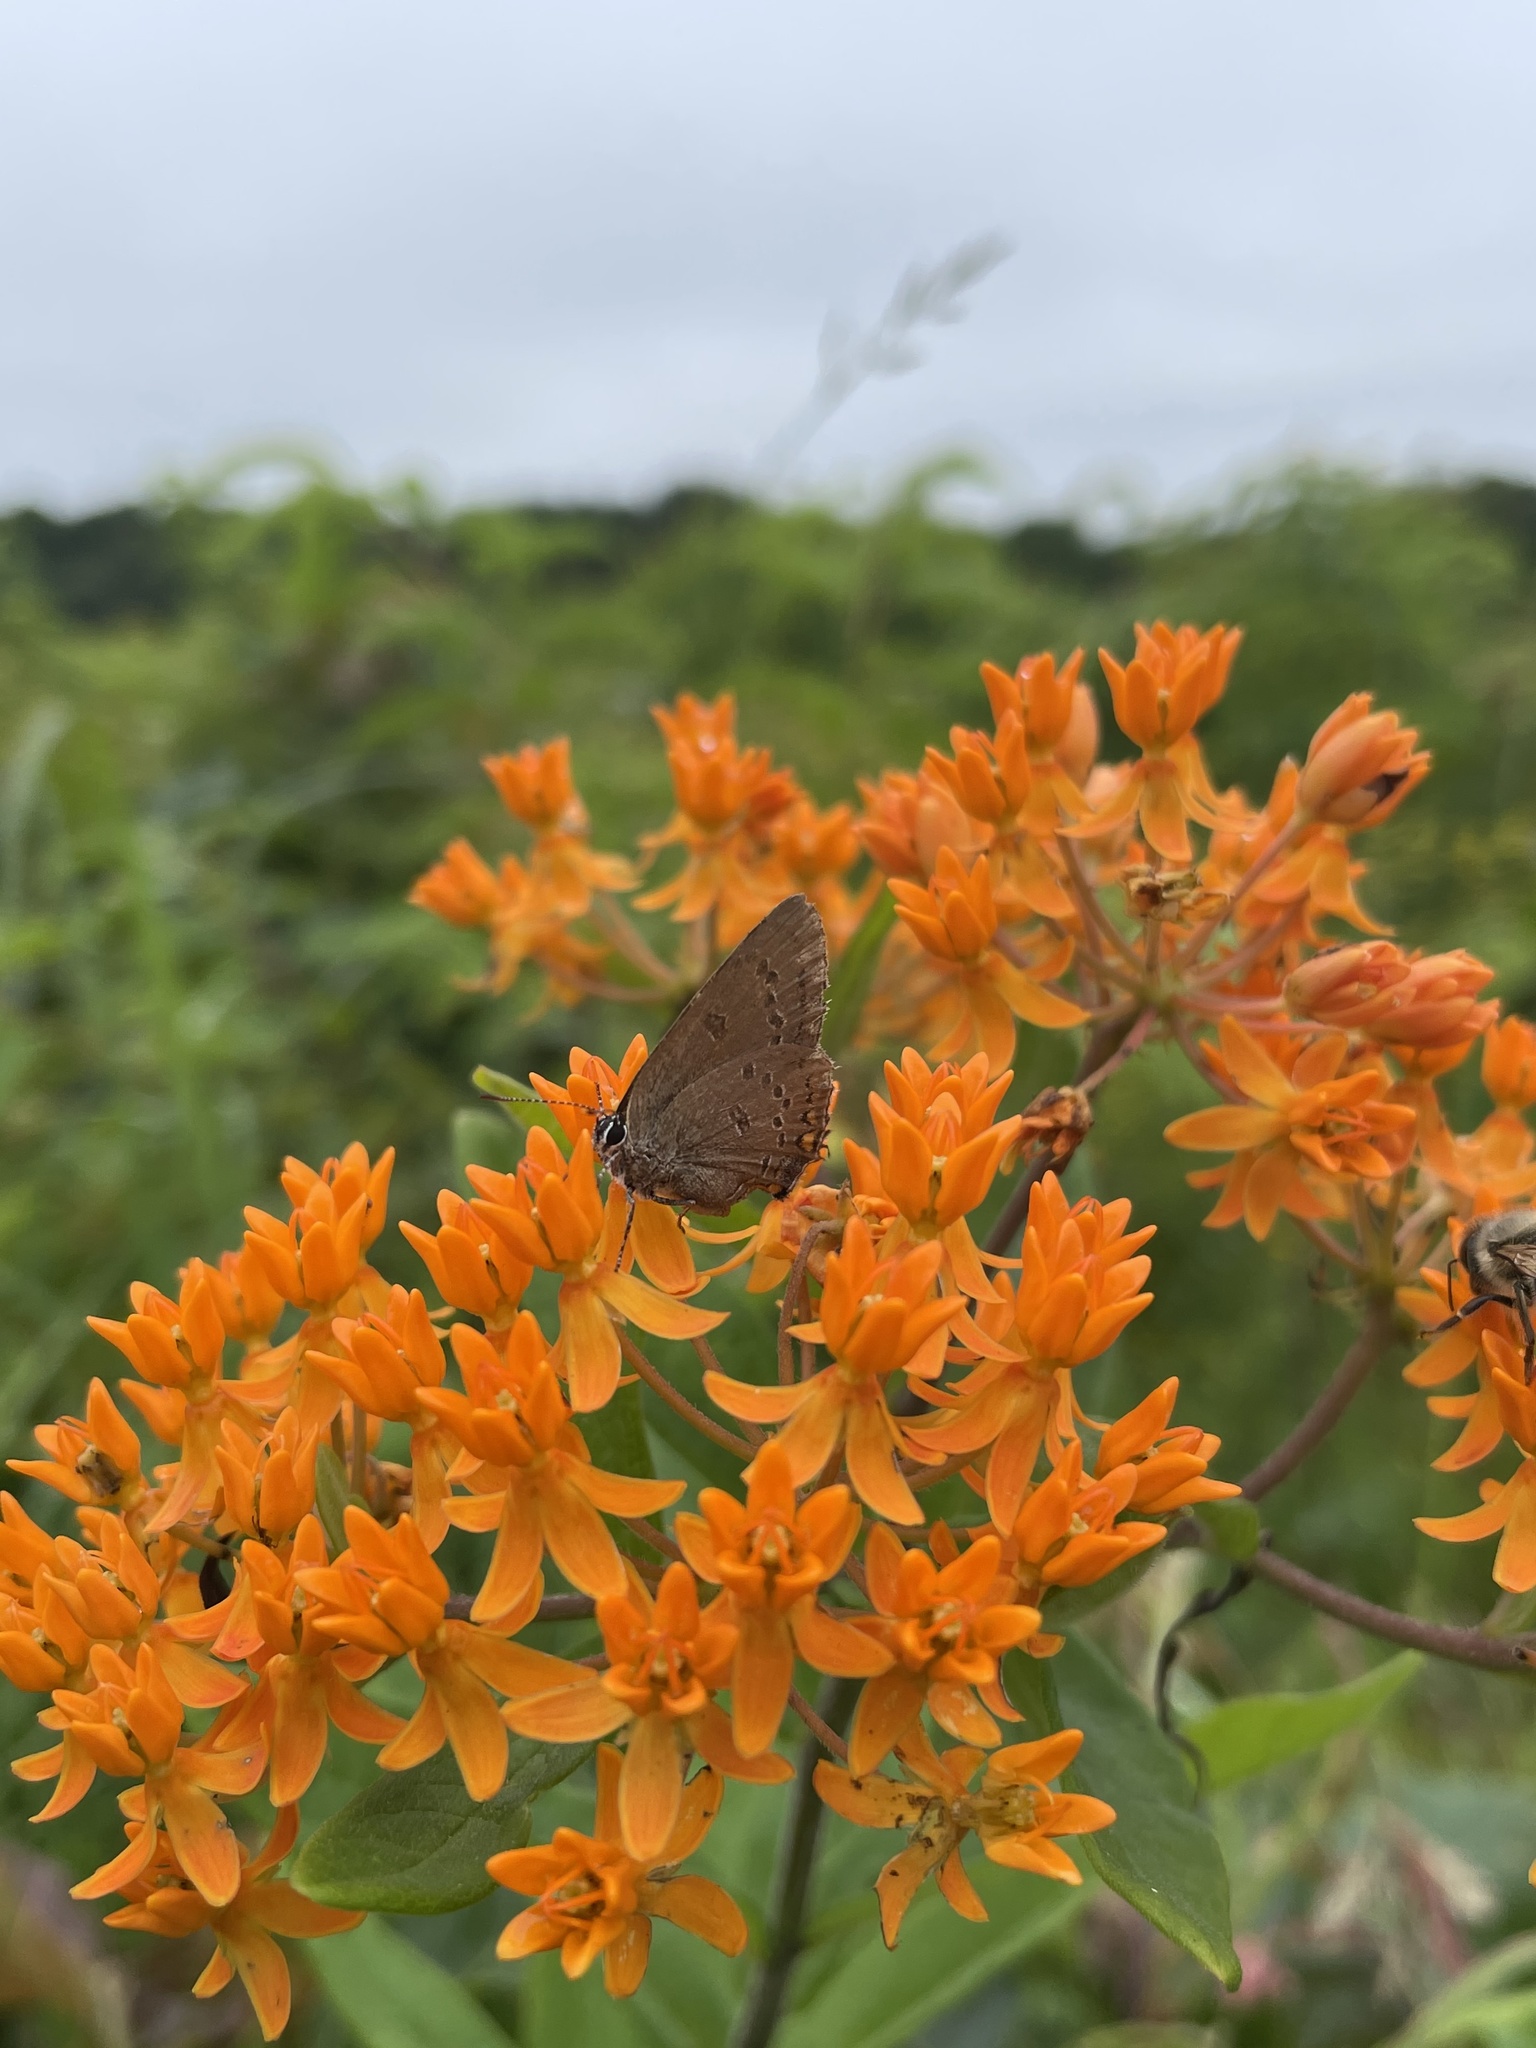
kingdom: Animalia
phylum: Arthropoda
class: Insecta
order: Lepidoptera
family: Lycaenidae
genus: Satyrium
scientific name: Satyrium edwardsii
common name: Edwards' hairstreak
